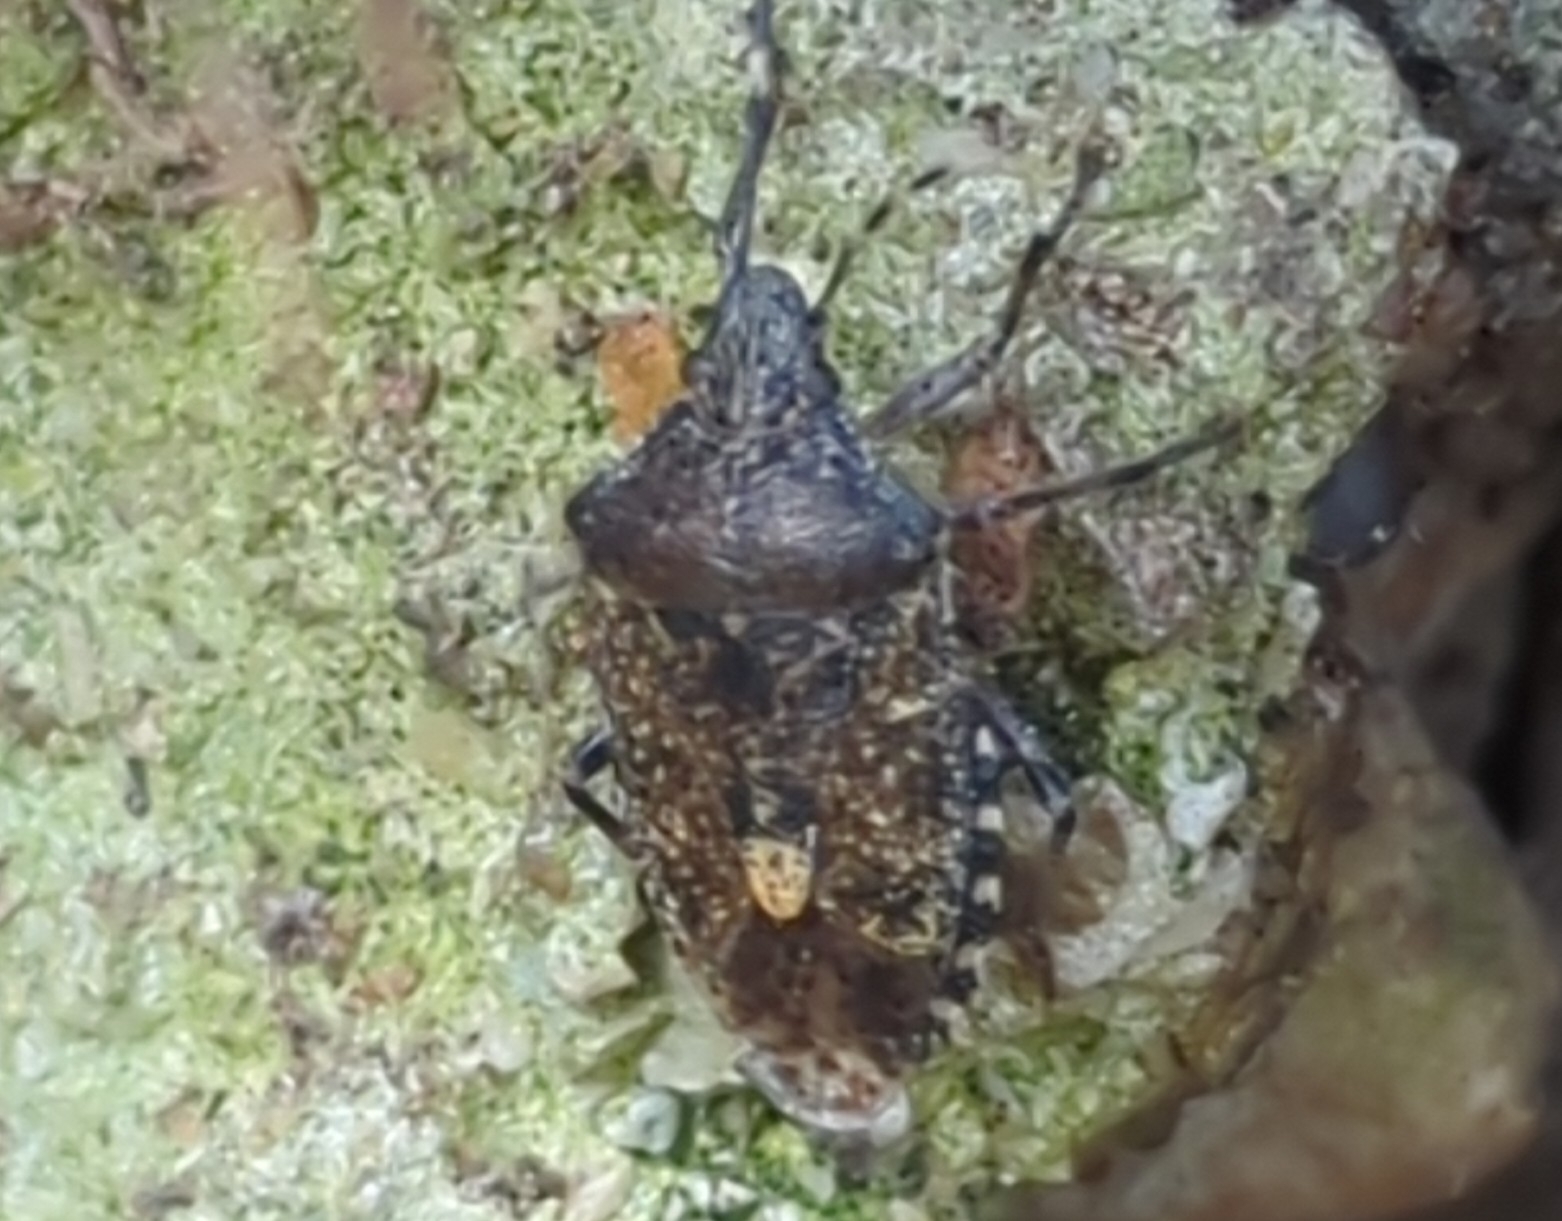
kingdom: Animalia
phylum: Arthropoda
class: Insecta
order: Hemiptera
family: Pentatomidae
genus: Rhaphigaster
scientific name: Rhaphigaster nebulosa
